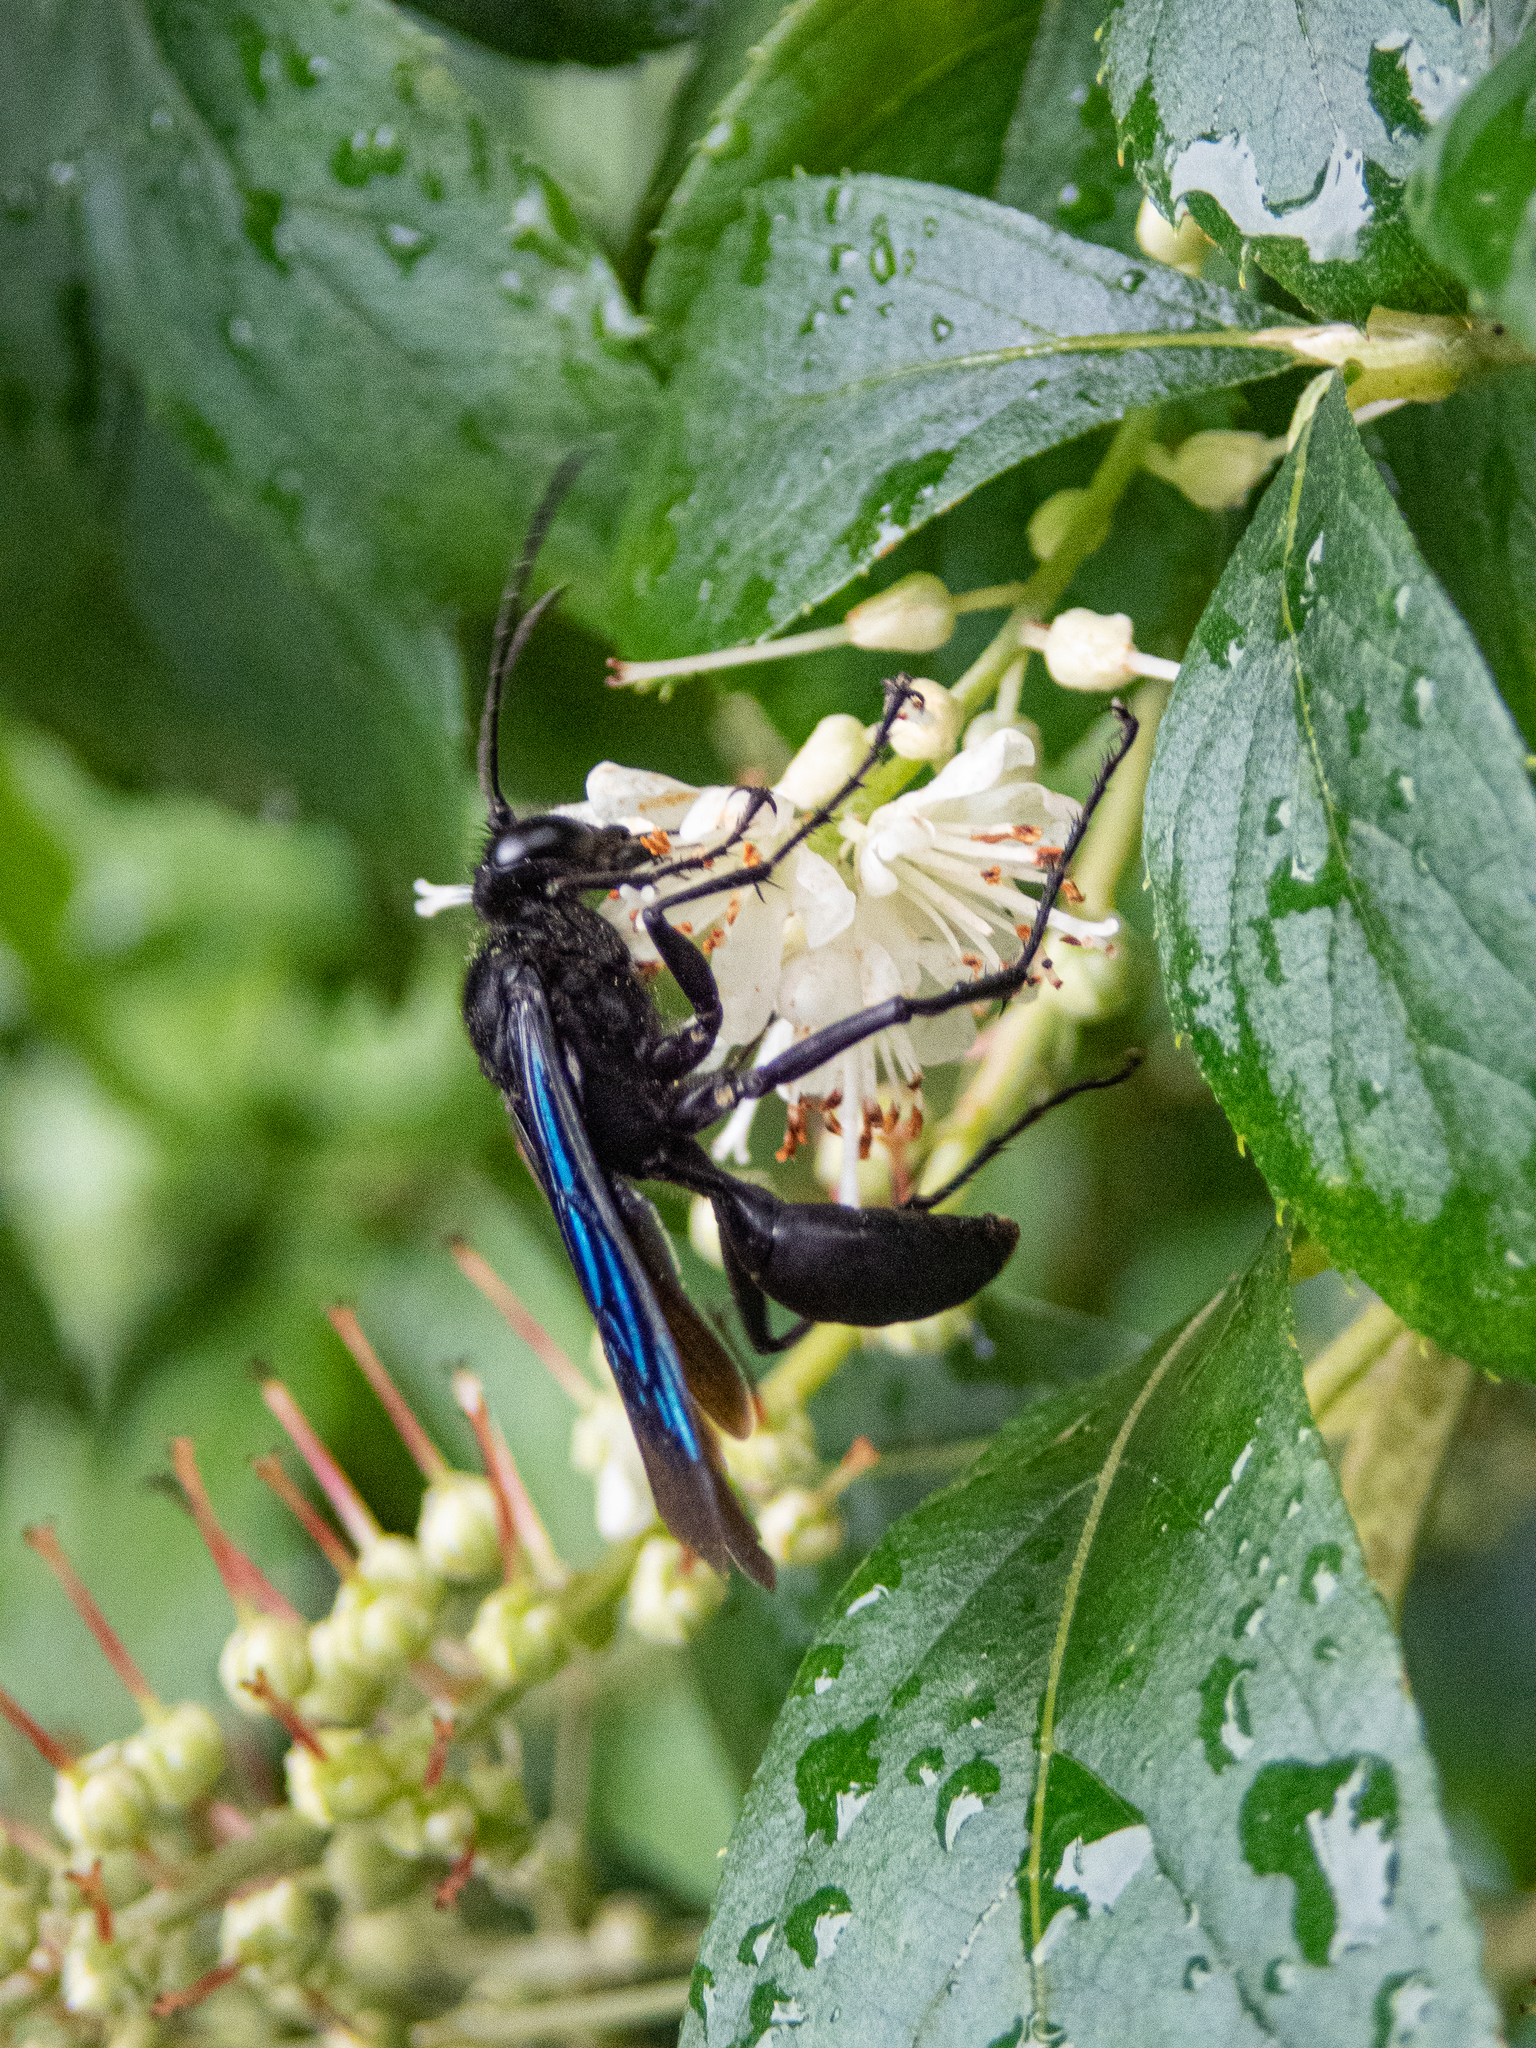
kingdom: Plantae
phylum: Tracheophyta
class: Magnoliopsida
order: Ericales
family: Clethraceae
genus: Clethra
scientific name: Clethra alnifolia
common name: Sweet pepperbush
